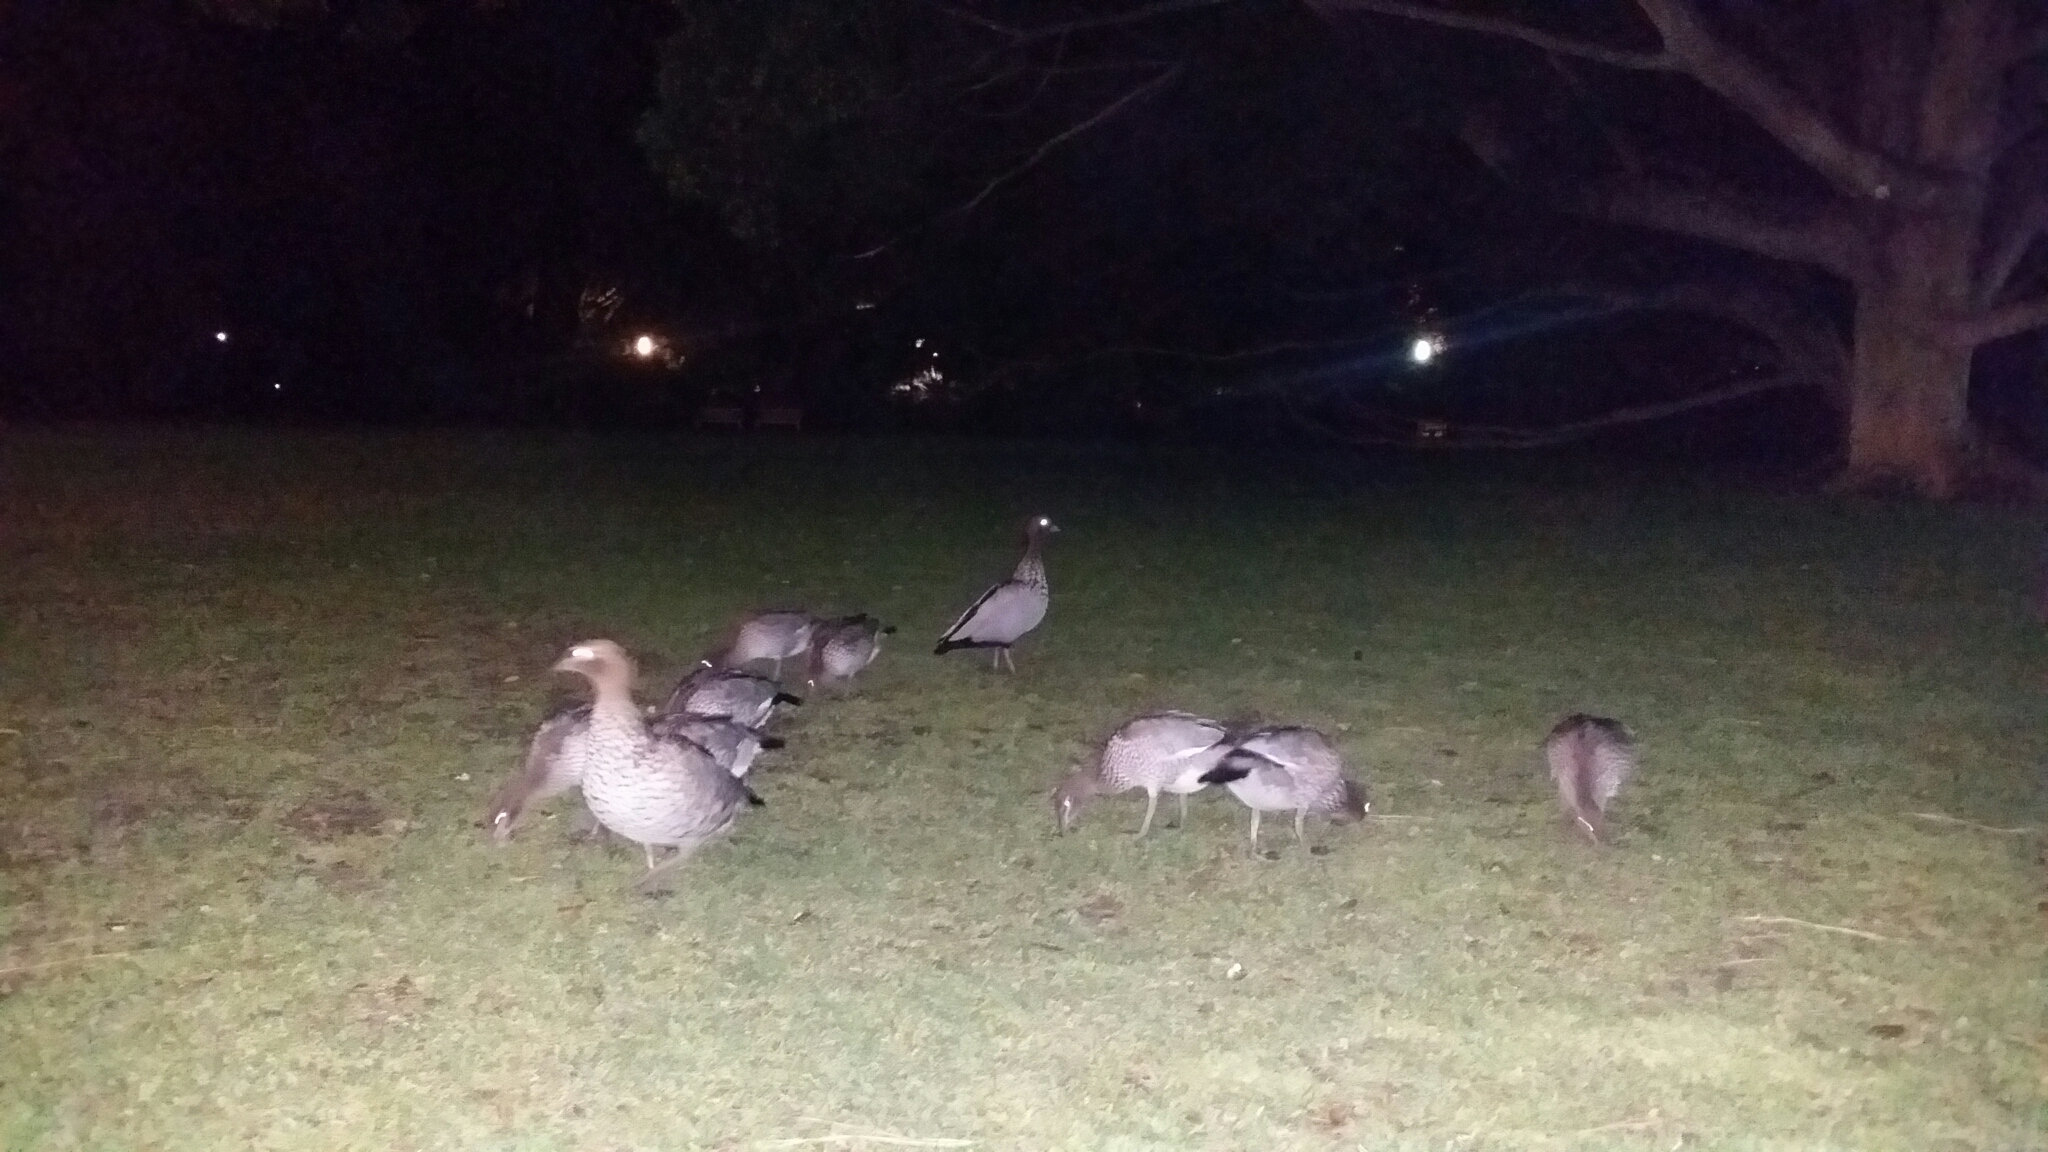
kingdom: Animalia
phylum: Chordata
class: Aves
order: Anseriformes
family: Anatidae
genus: Chenonetta
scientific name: Chenonetta jubata
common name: Maned duck
